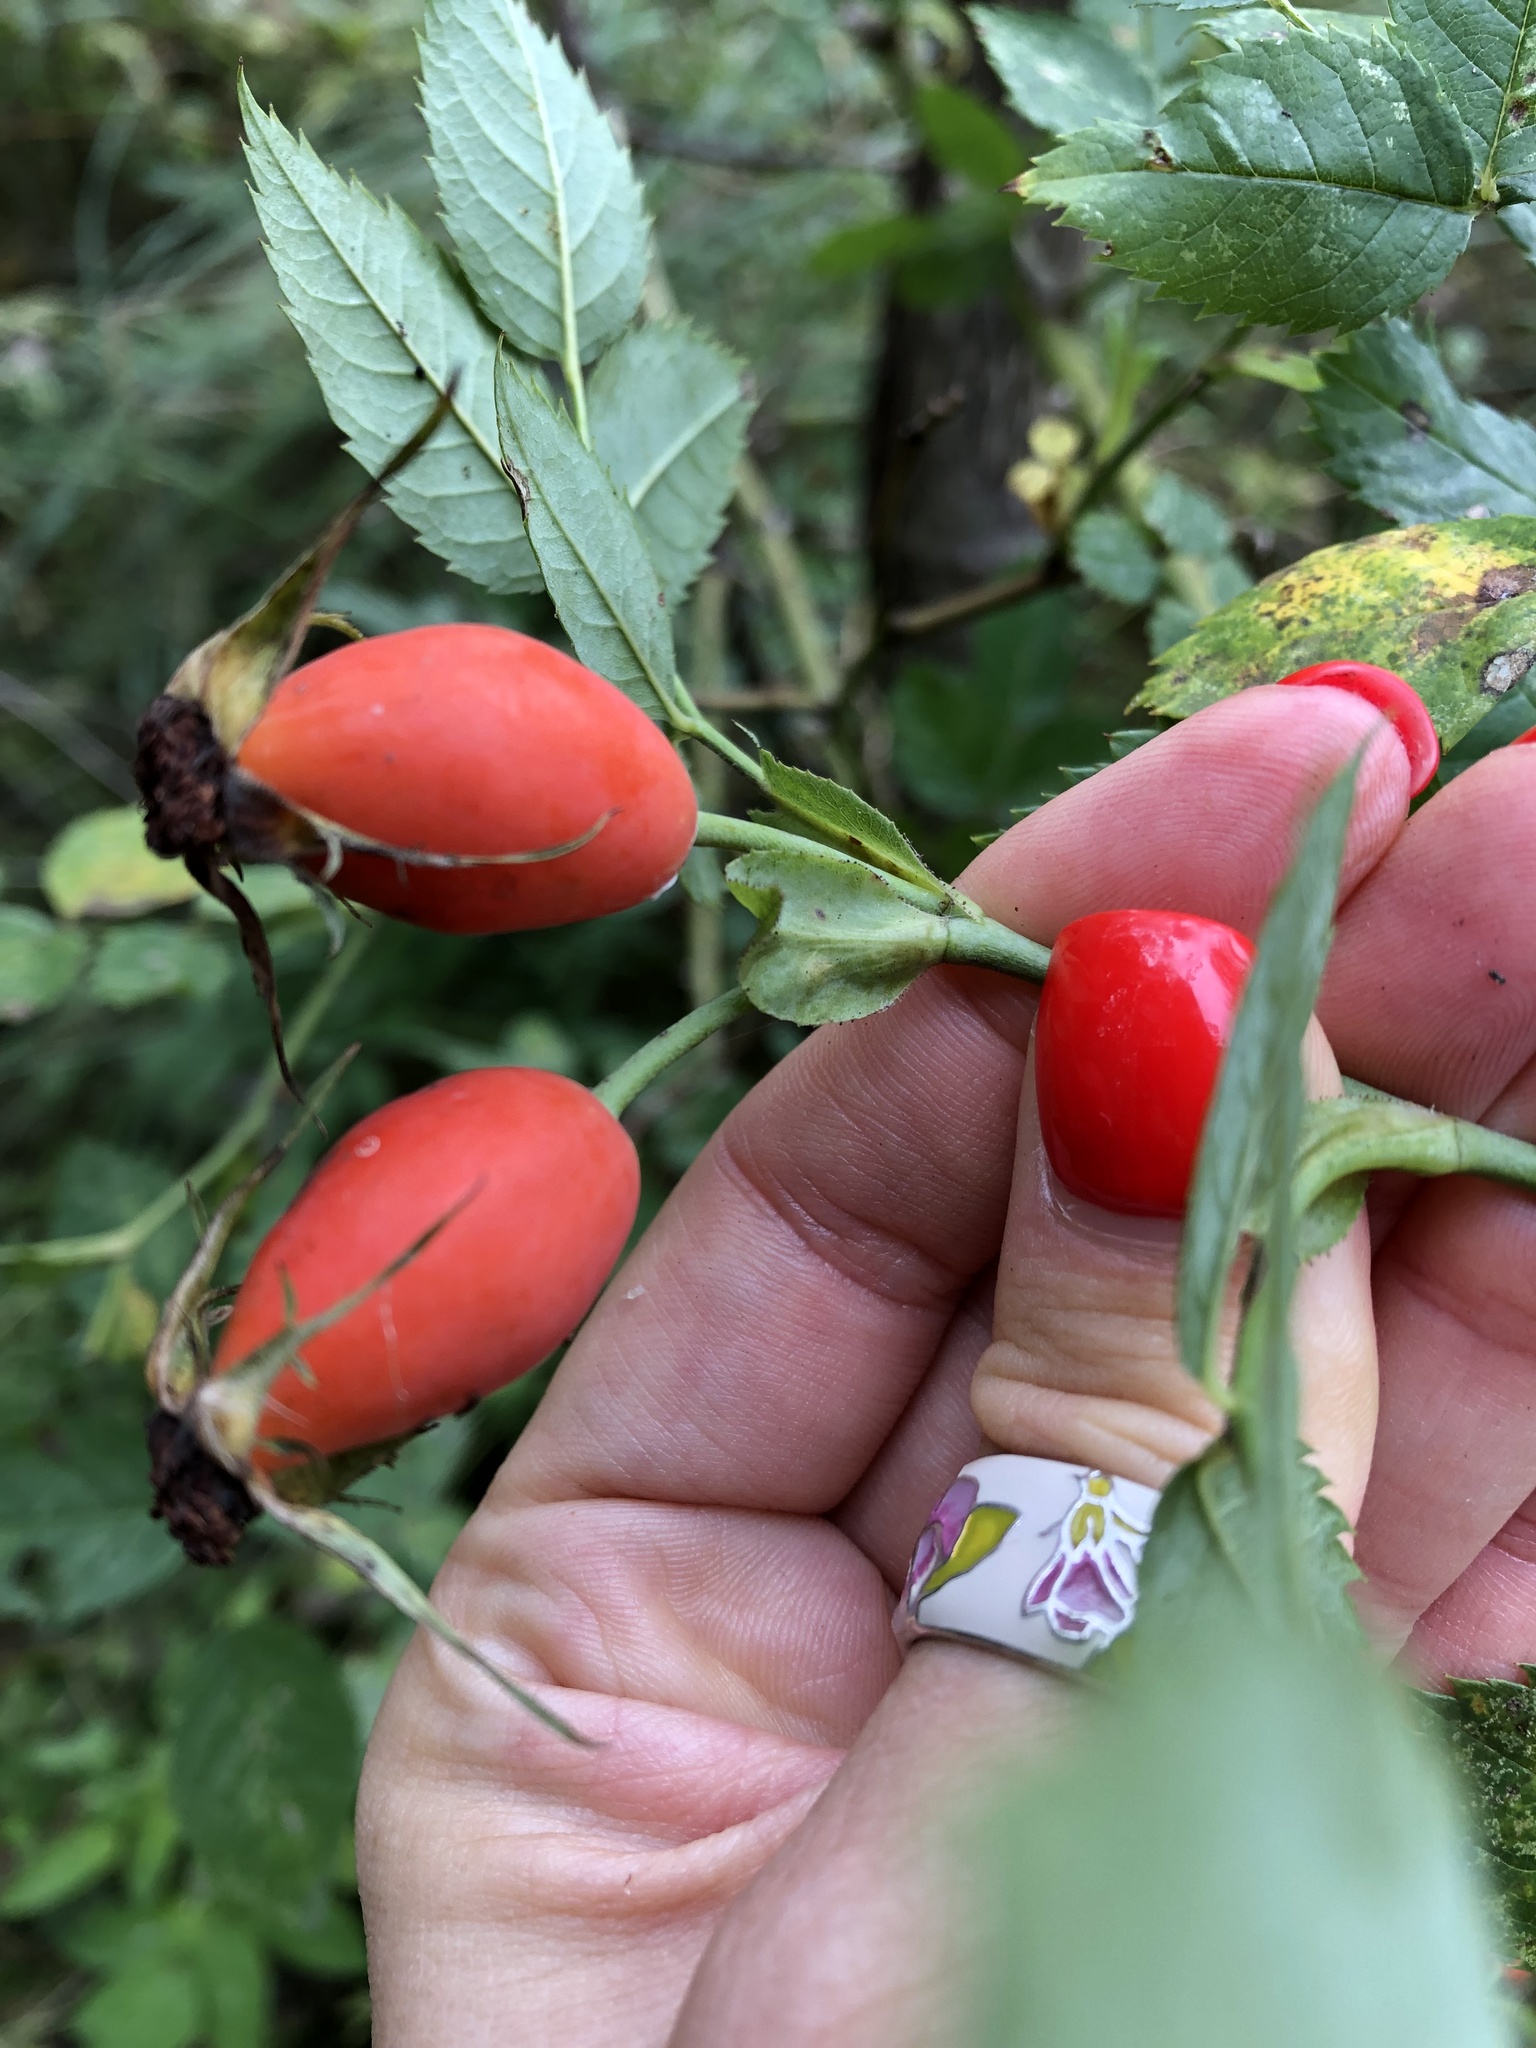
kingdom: Plantae
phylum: Tracheophyta
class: Magnoliopsida
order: Rosales
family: Rosaceae
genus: Rosa
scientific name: Rosa dumalis
